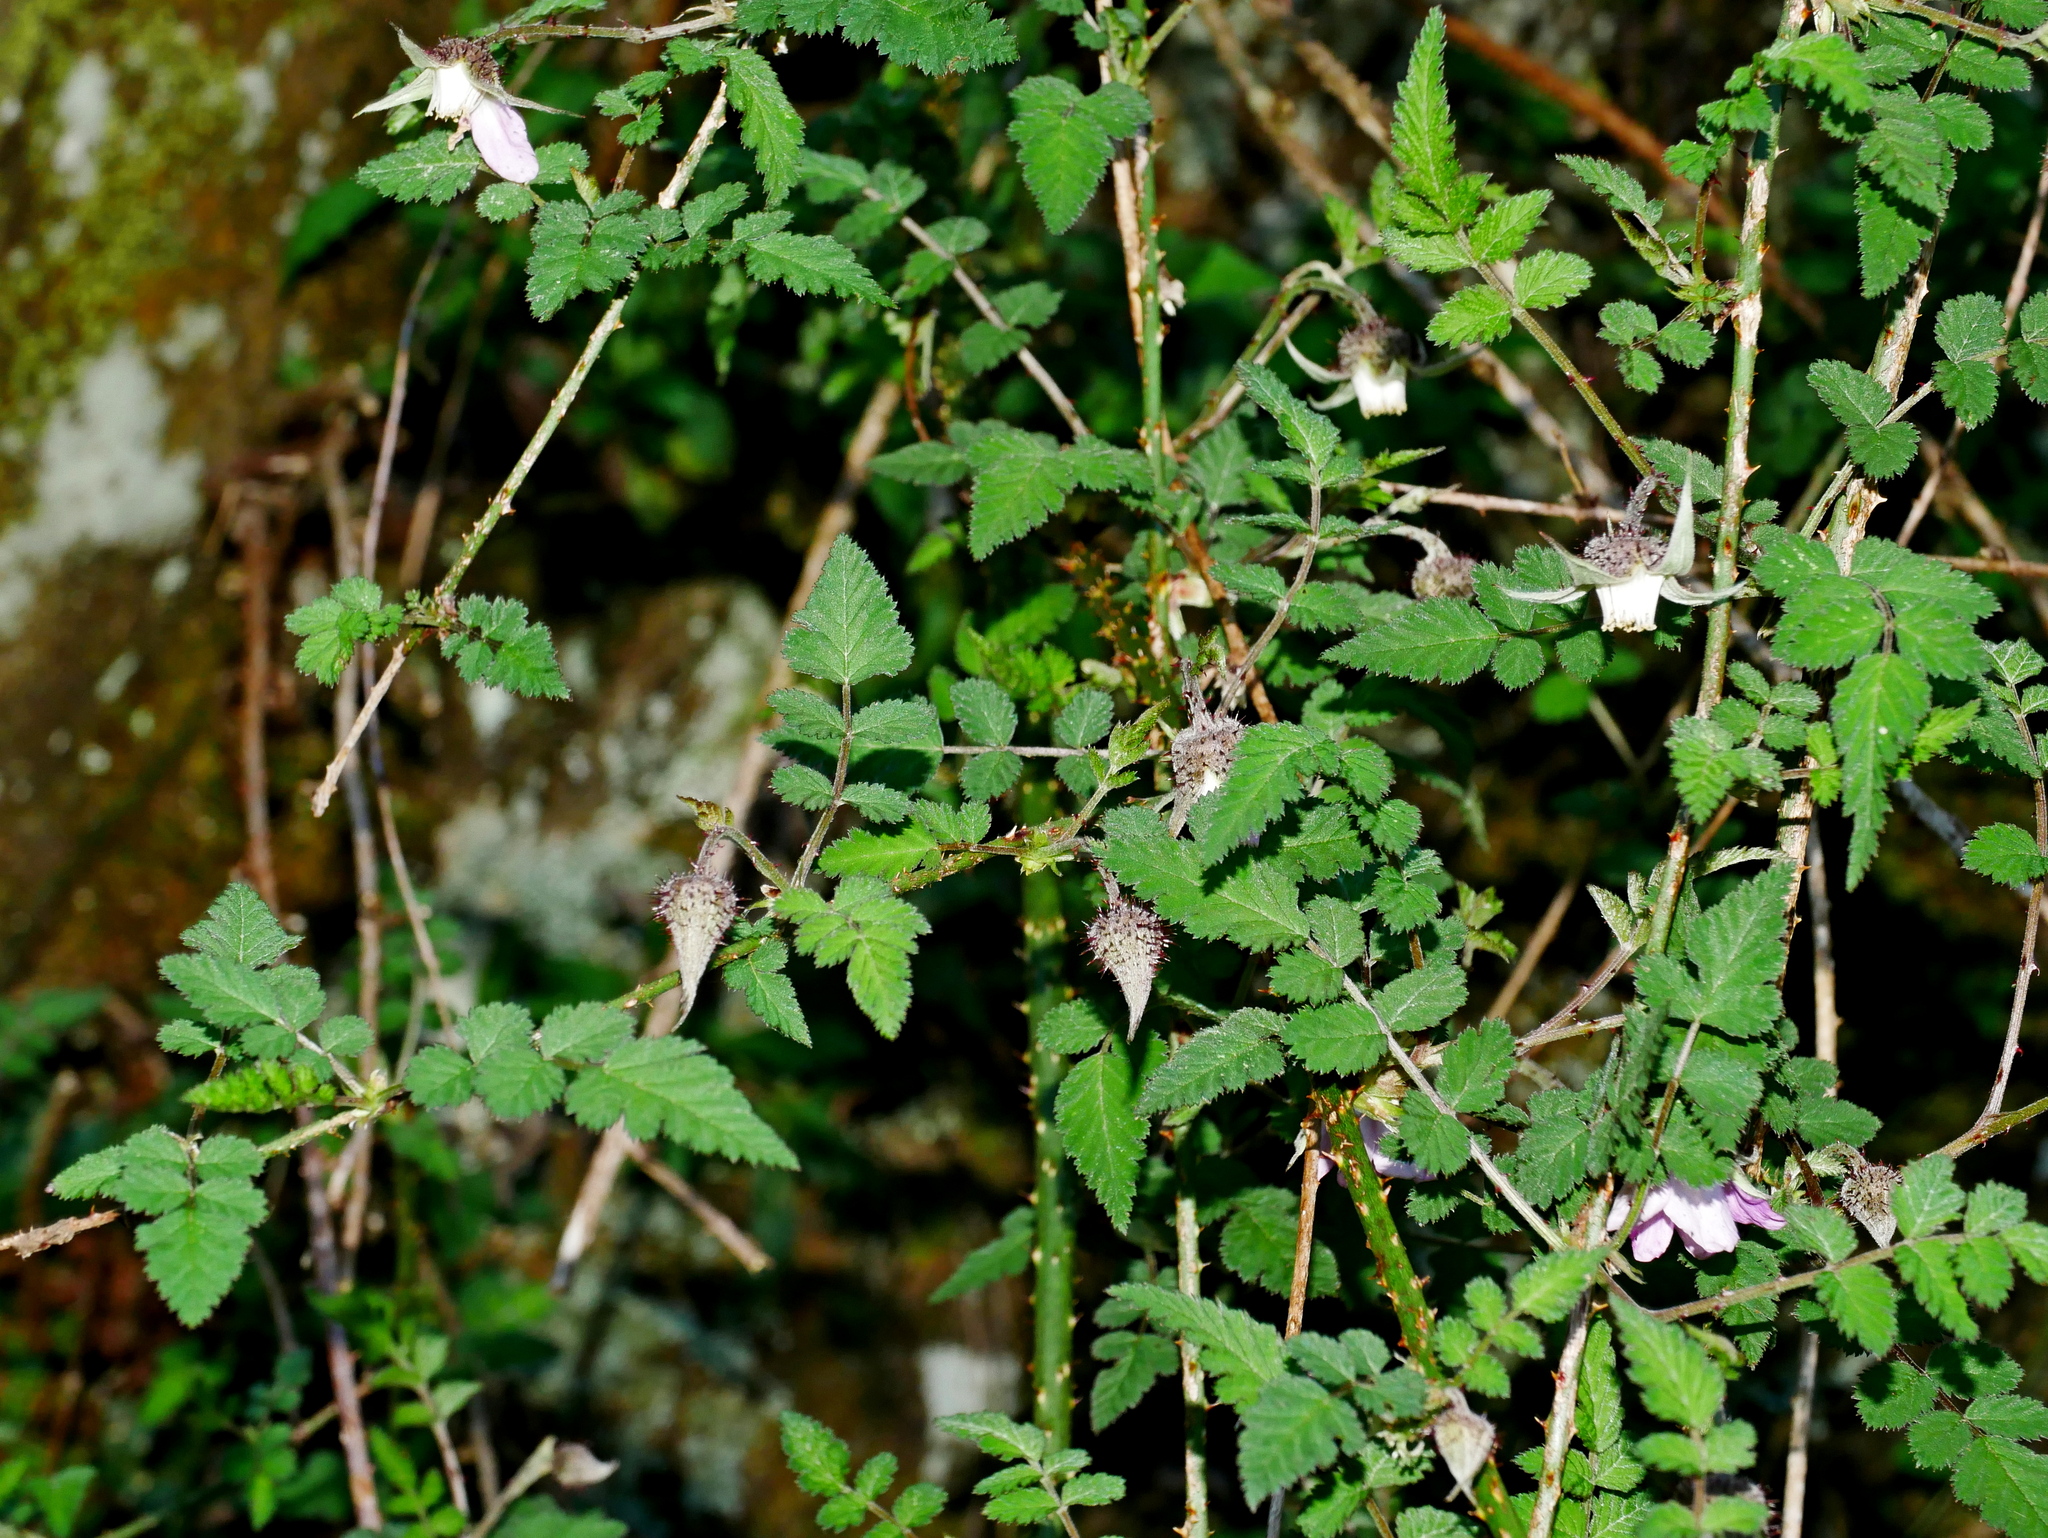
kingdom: Plantae
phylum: Tracheophyta
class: Magnoliopsida
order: Rosales
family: Rosaceae
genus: Rubus
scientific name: Rubus pungens
